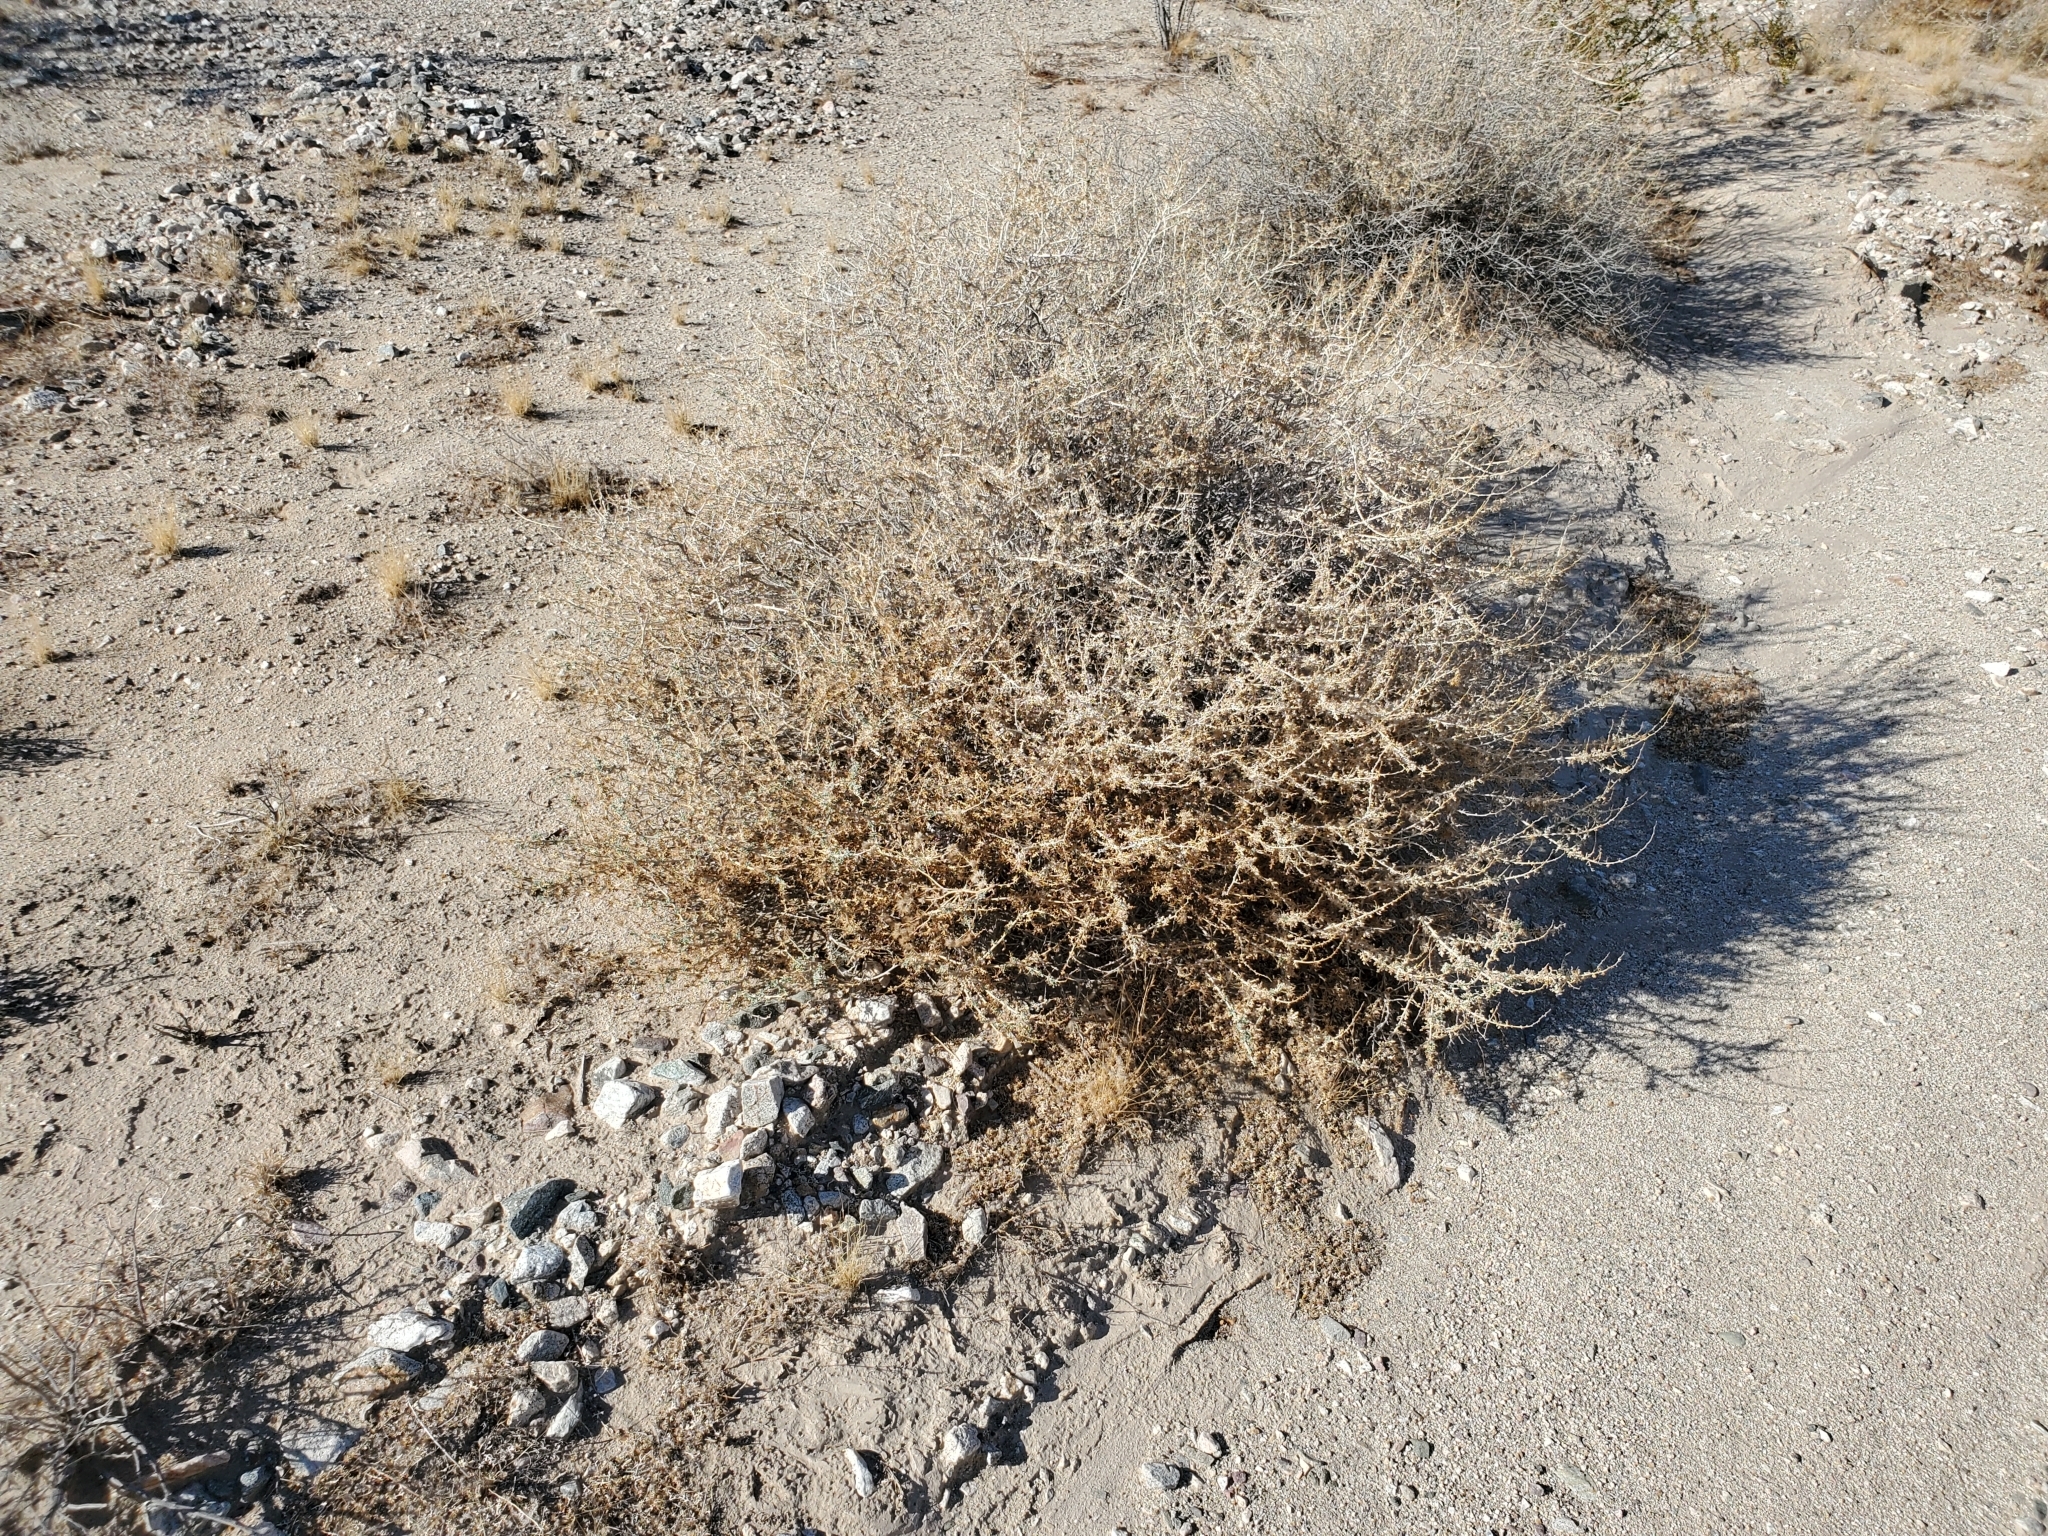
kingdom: Plantae
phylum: Tracheophyta
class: Magnoliopsida
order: Asterales
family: Asteraceae
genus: Ambrosia
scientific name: Ambrosia dumosa
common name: Bur-sage
